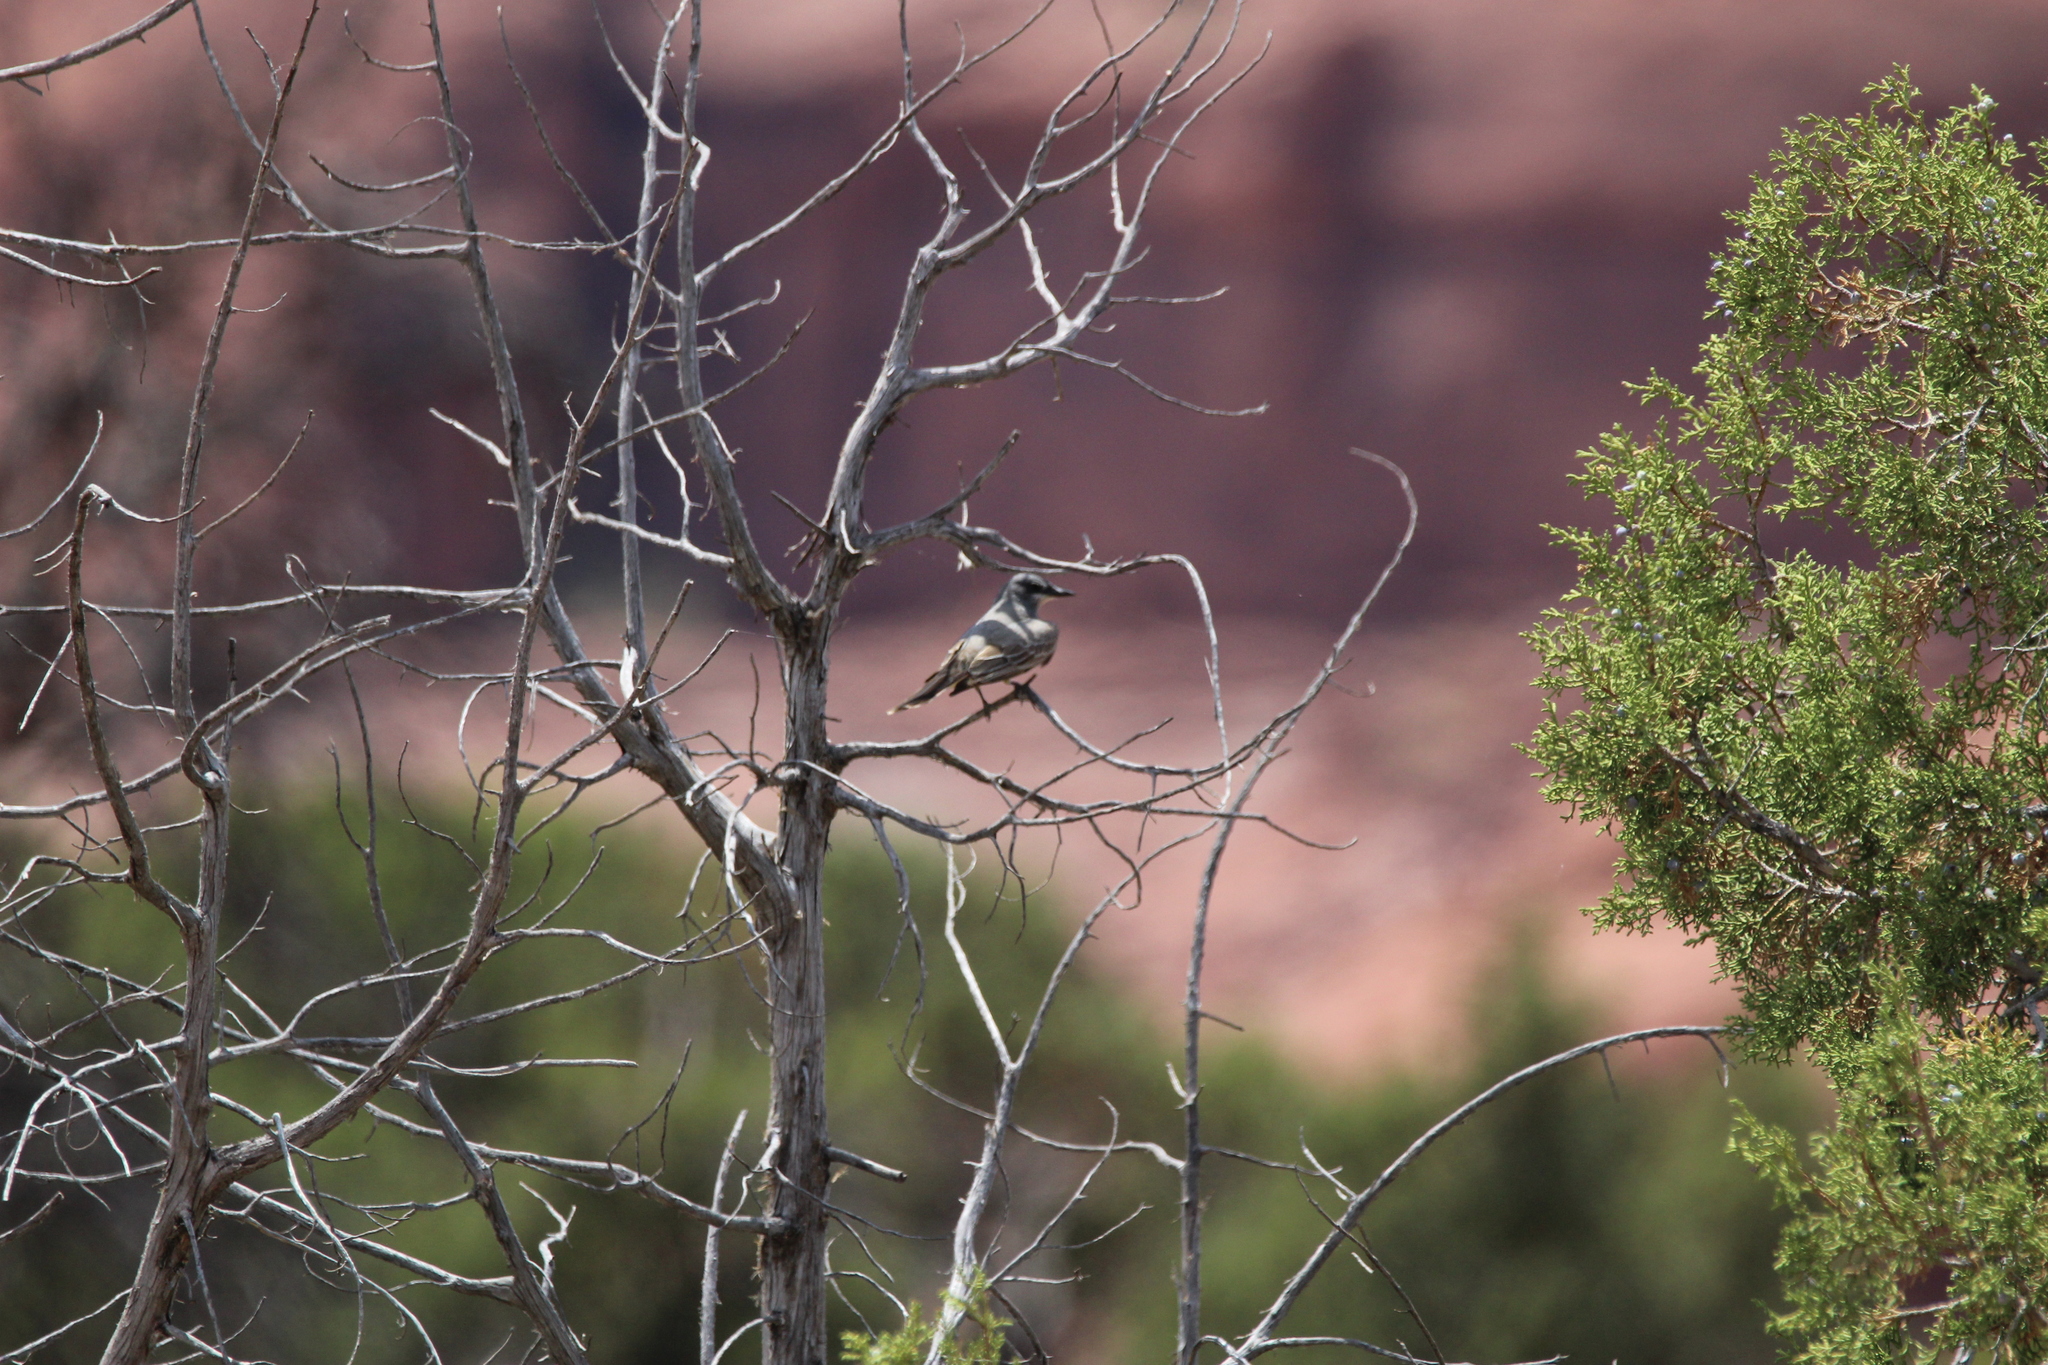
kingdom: Animalia
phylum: Chordata
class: Aves
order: Passeriformes
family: Tyrannidae
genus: Tyrannus
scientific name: Tyrannus vociferans
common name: Cassin's kingbird
